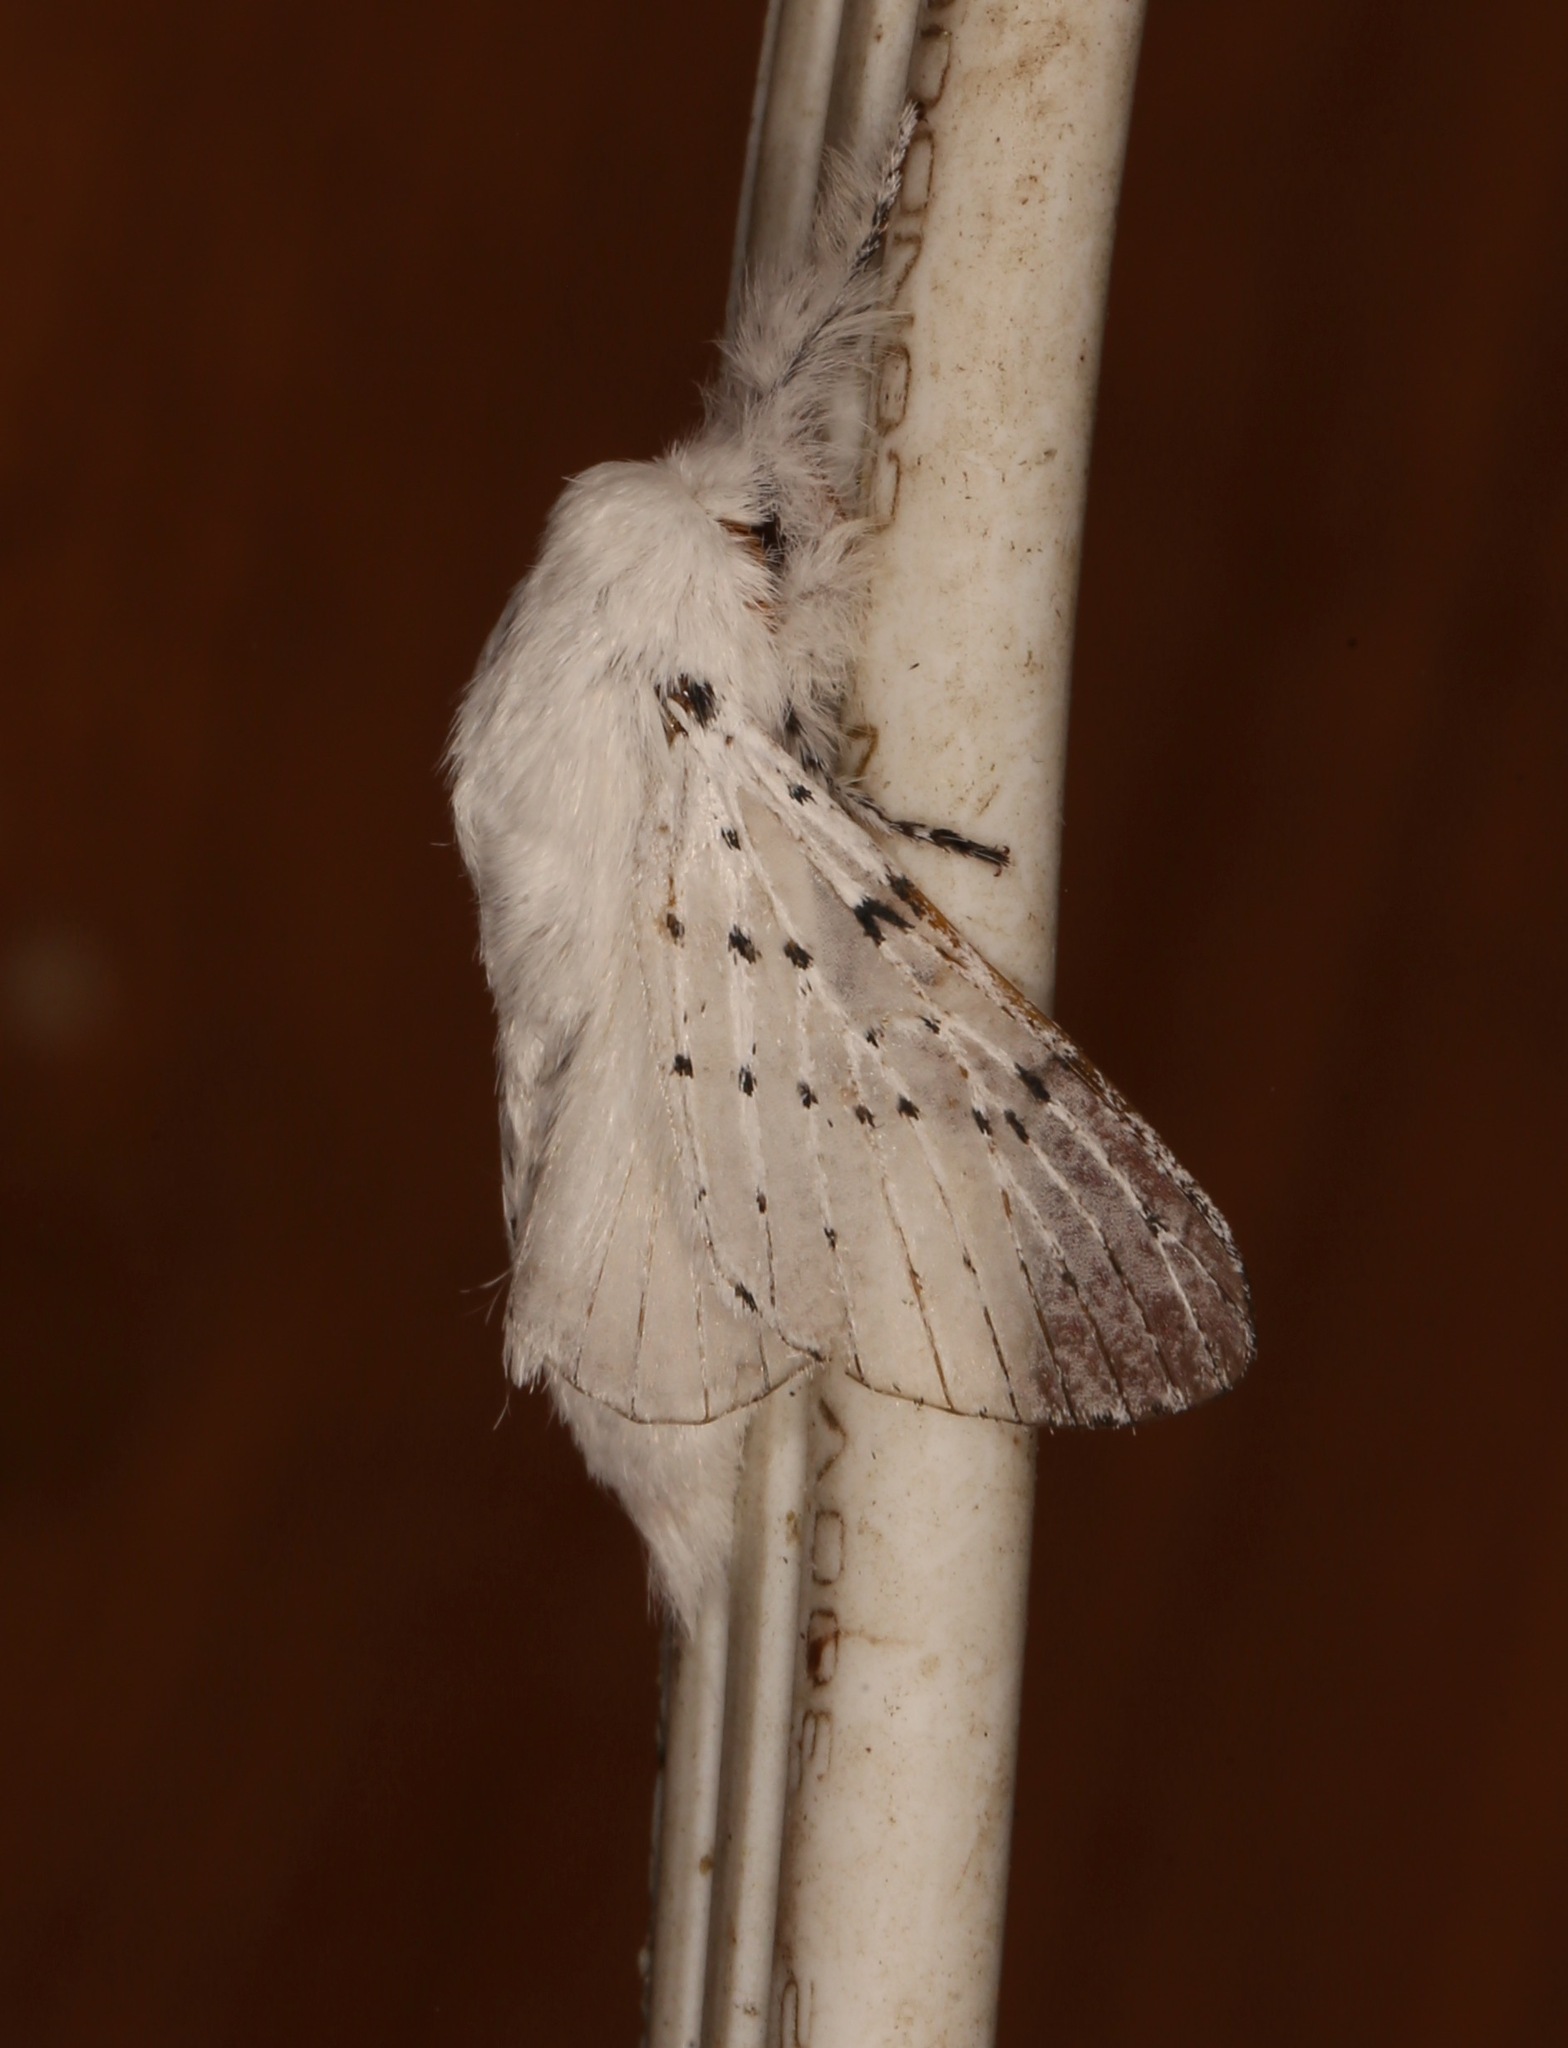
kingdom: Animalia
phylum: Arthropoda
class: Insecta
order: Lepidoptera
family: Lasiocampidae
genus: Artace
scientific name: Artace cribrarius
